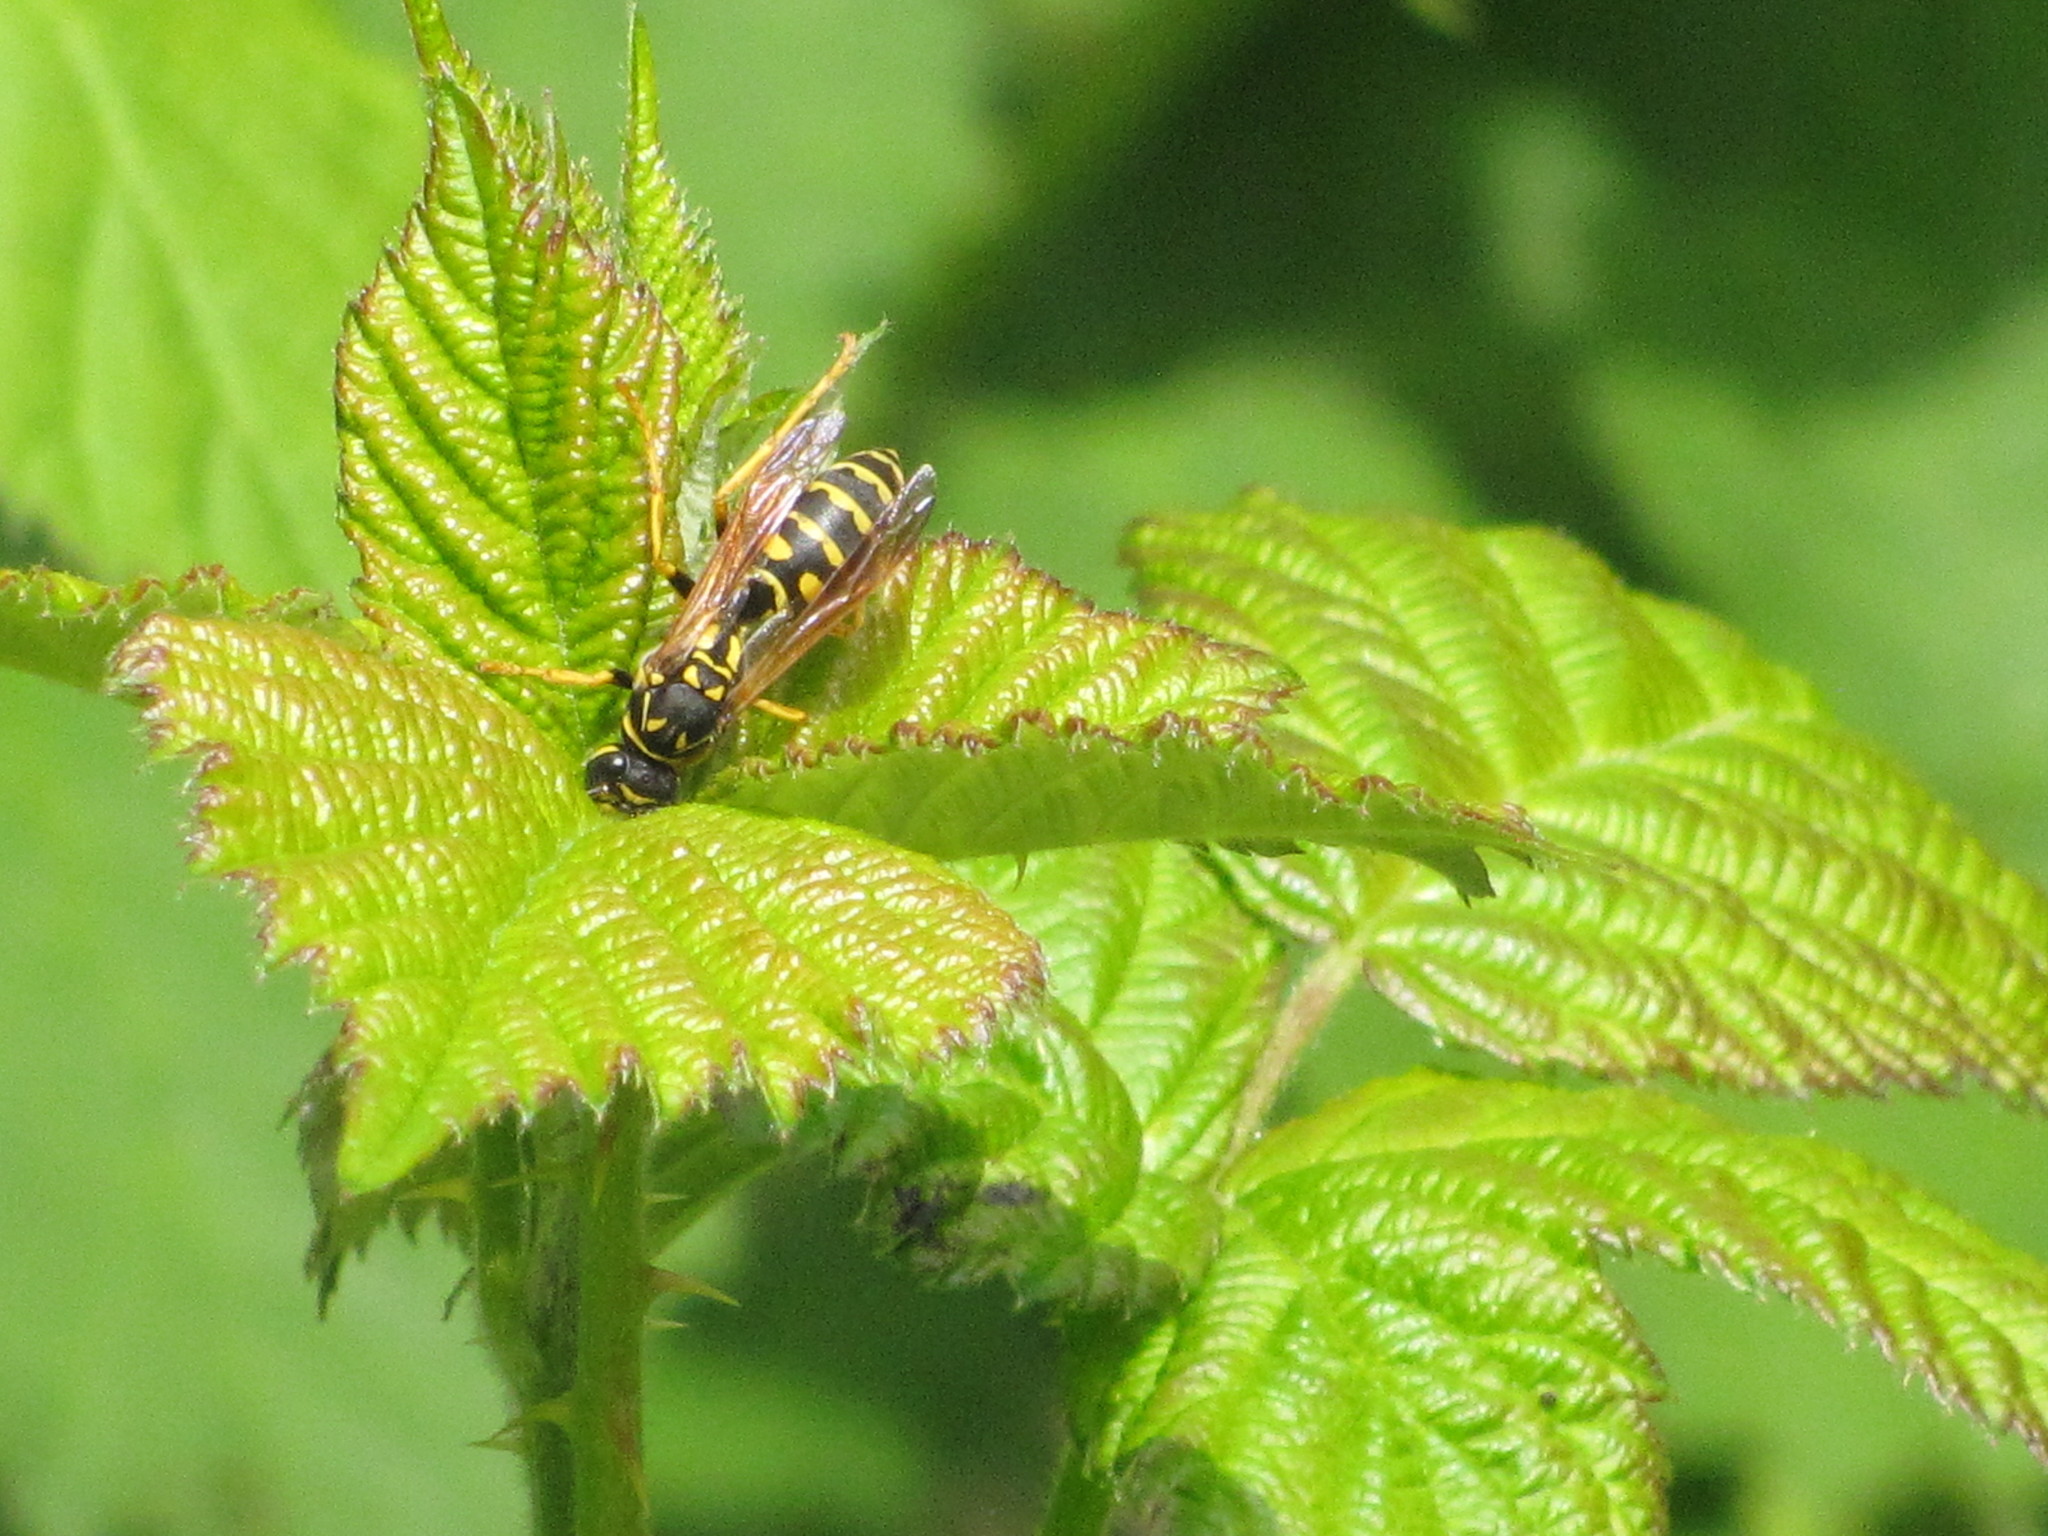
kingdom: Animalia
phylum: Arthropoda
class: Insecta
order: Hymenoptera
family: Eumenidae
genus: Polistes
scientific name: Polistes dominula
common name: Paper wasp
